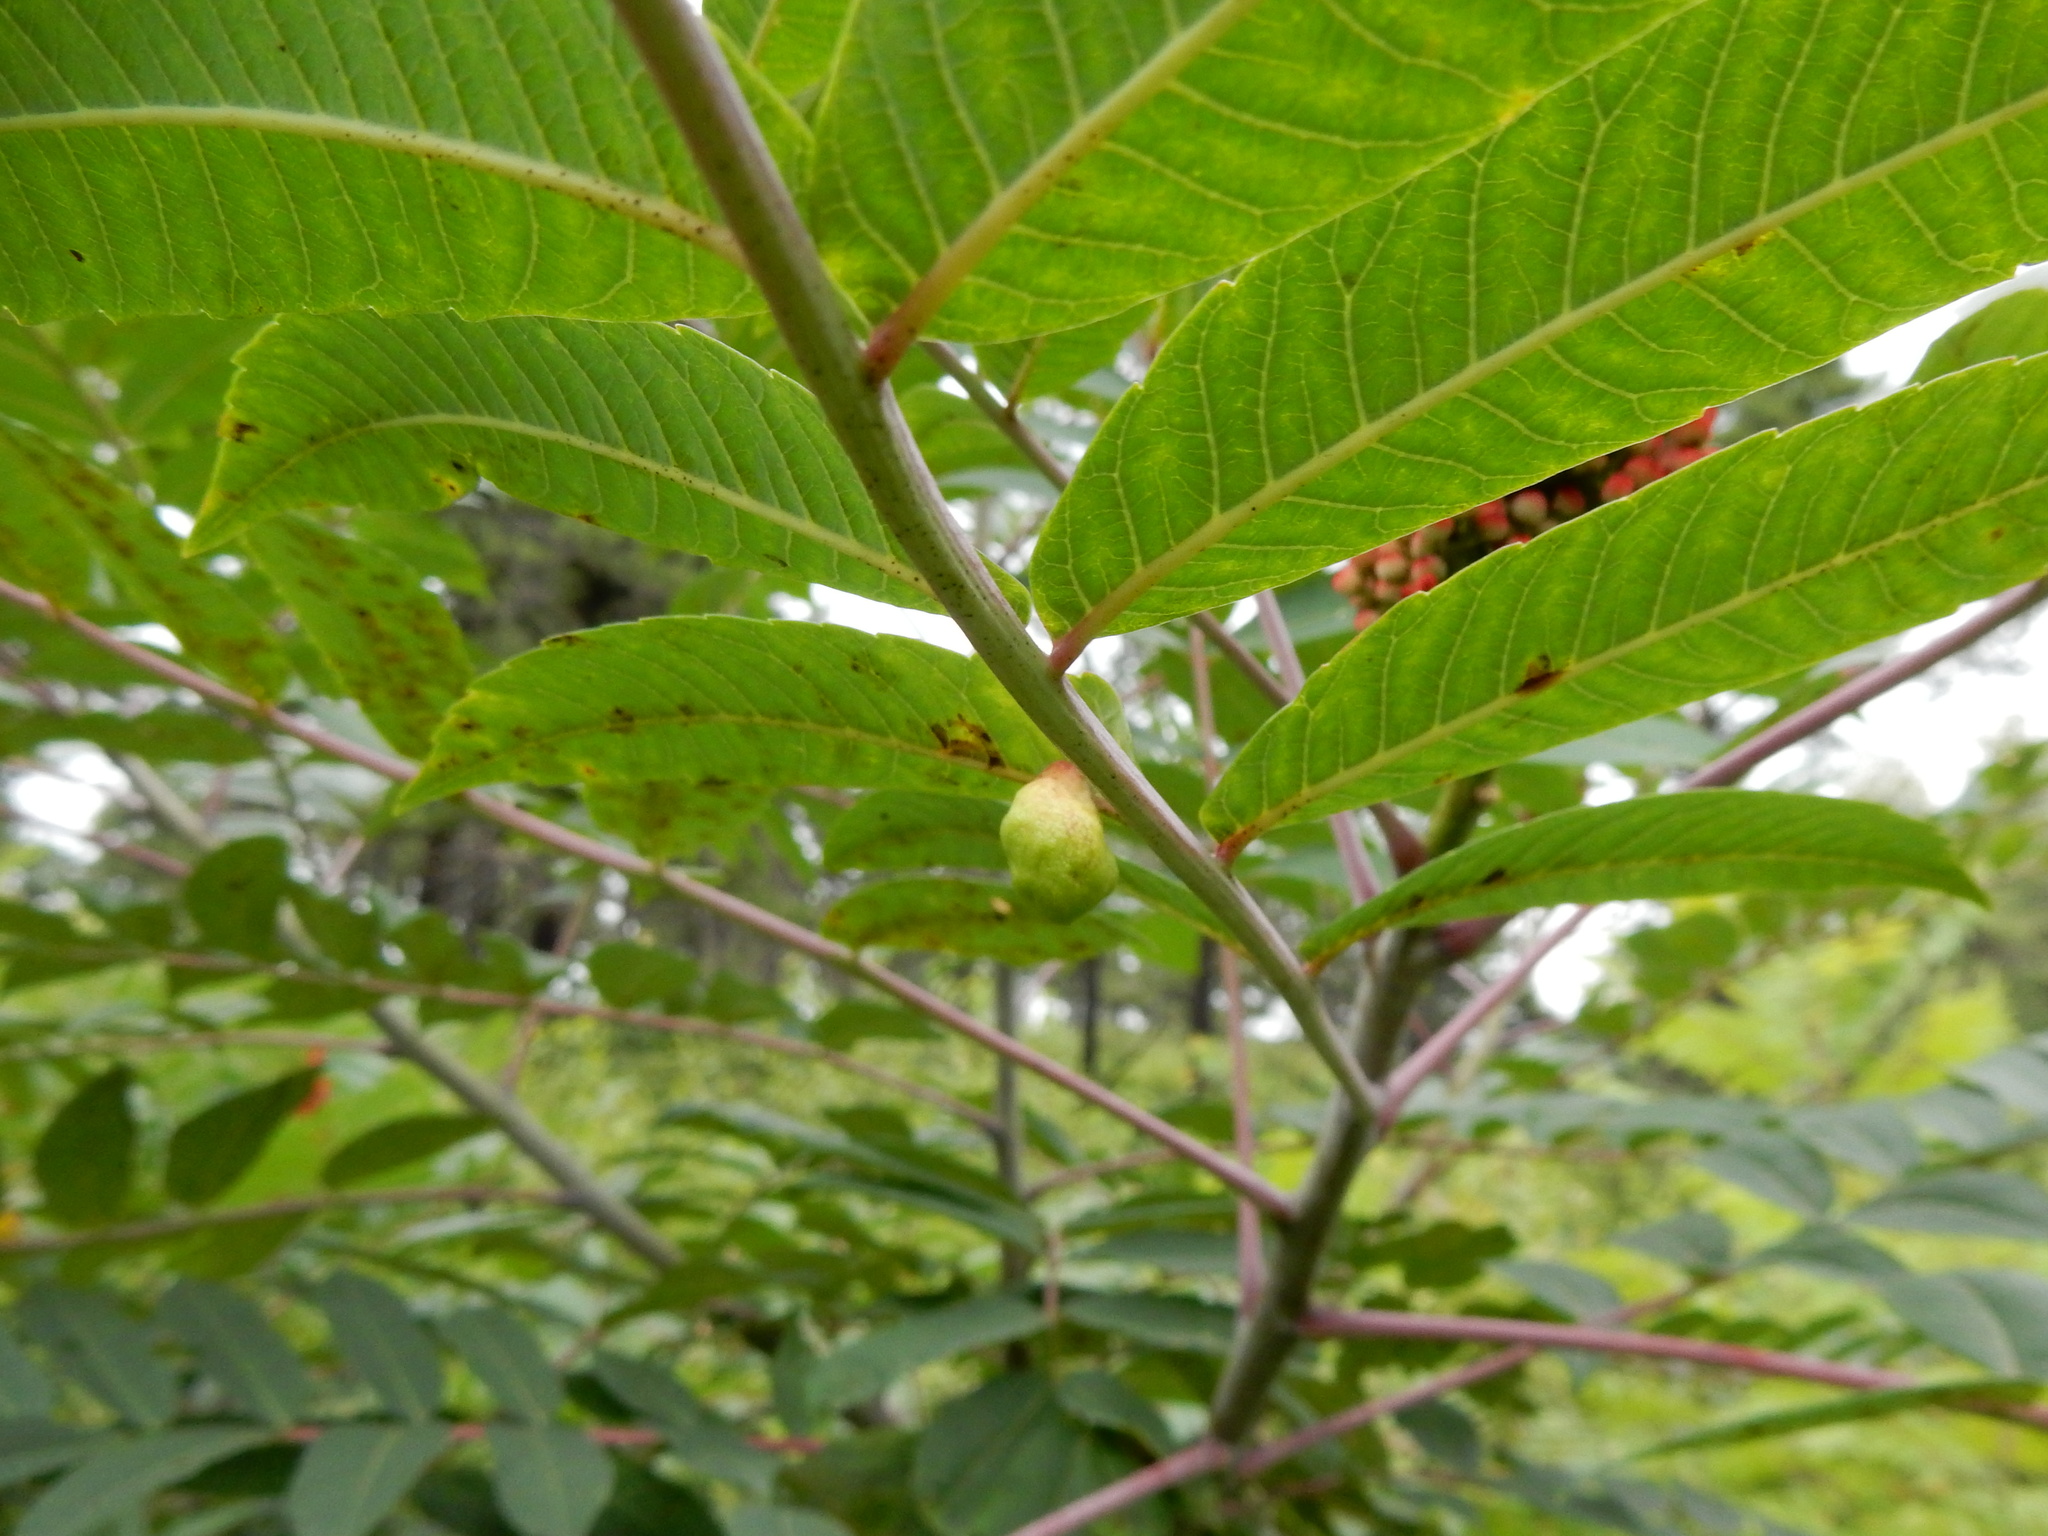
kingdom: Animalia
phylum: Arthropoda
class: Insecta
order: Hemiptera
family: Aphididae
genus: Melaphis
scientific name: Melaphis rhois
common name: Sumac gall aphid
